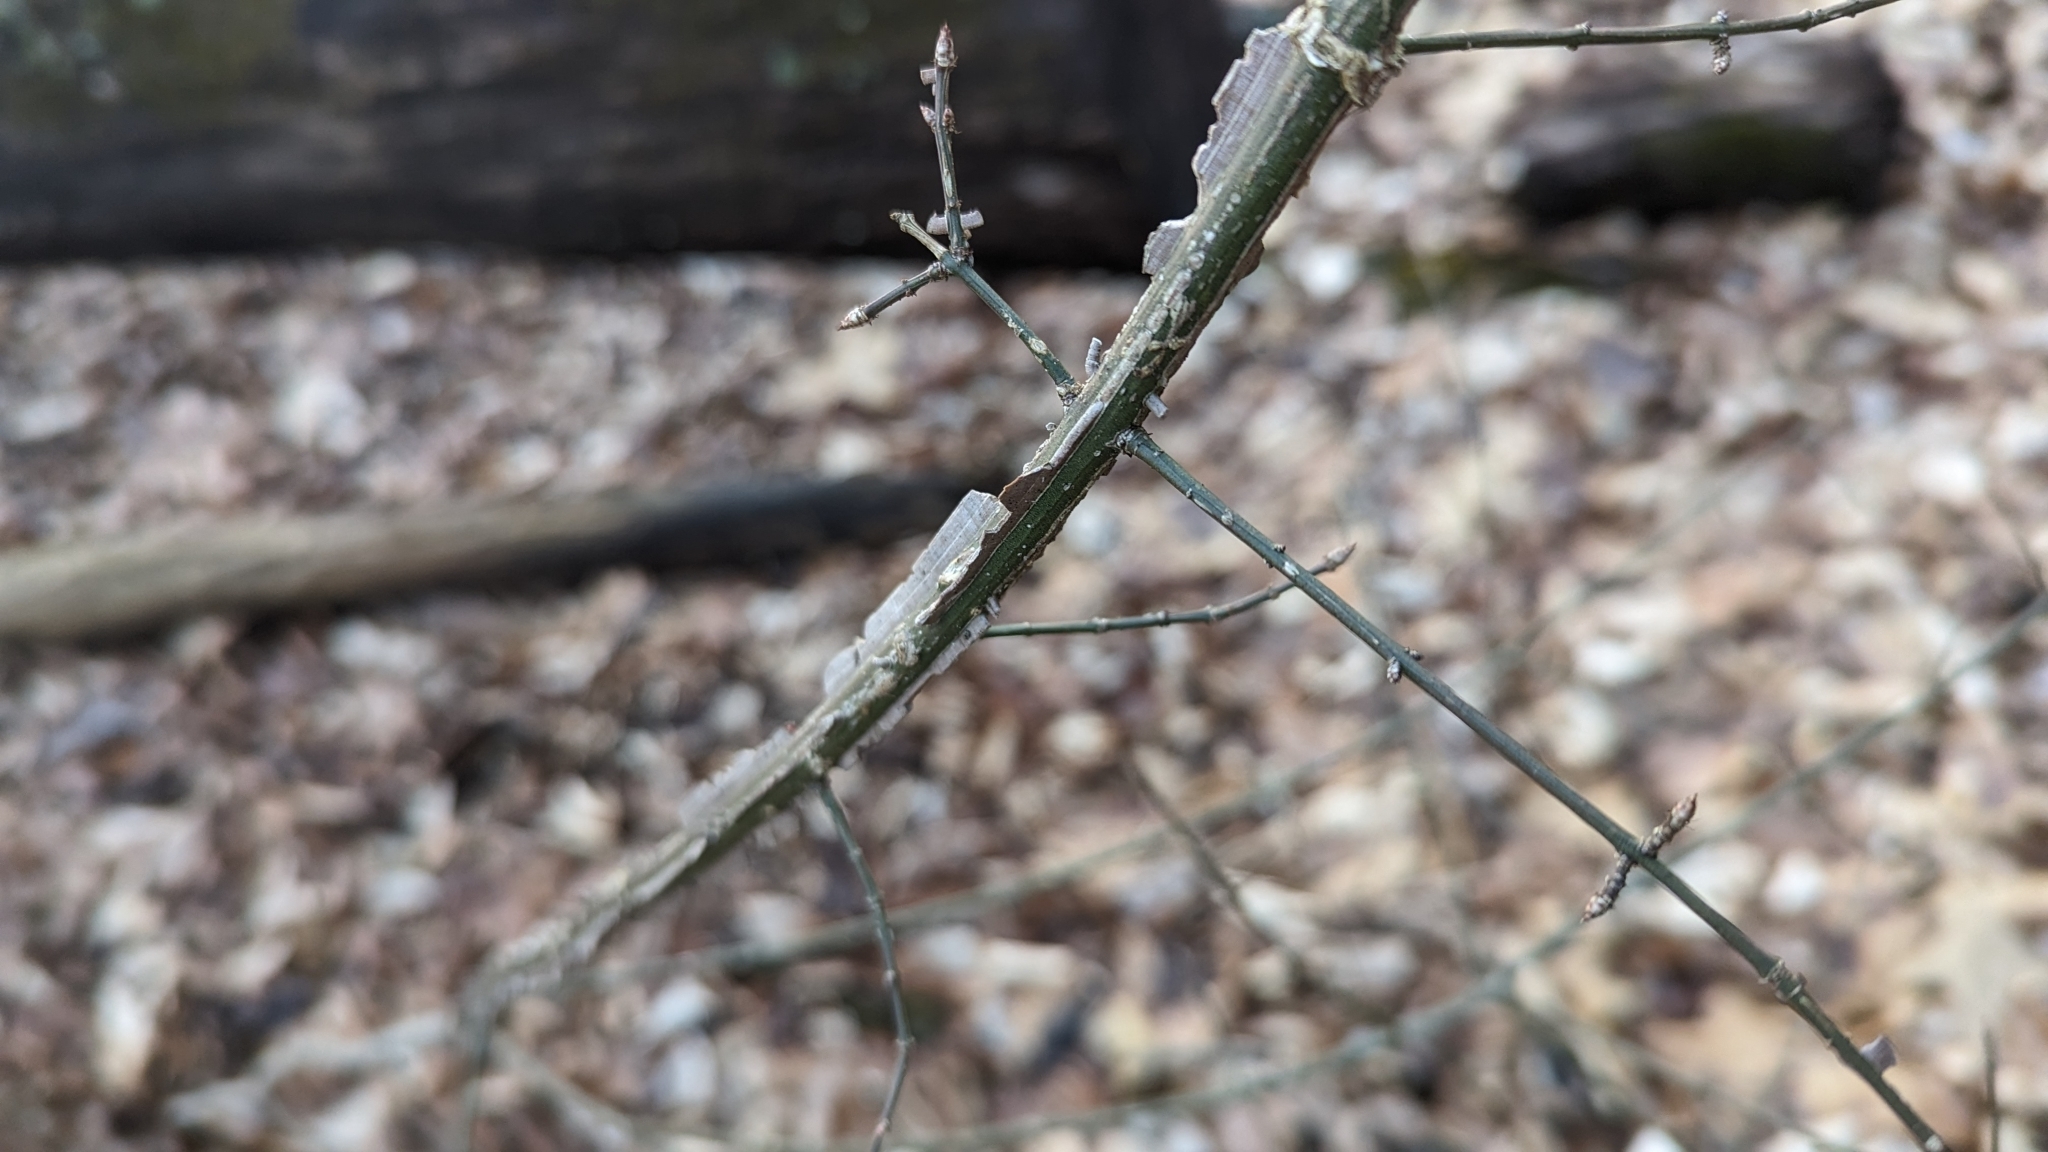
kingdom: Plantae
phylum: Tracheophyta
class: Magnoliopsida
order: Celastrales
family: Celastraceae
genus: Euonymus
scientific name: Euonymus alatus
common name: Winged euonymus
